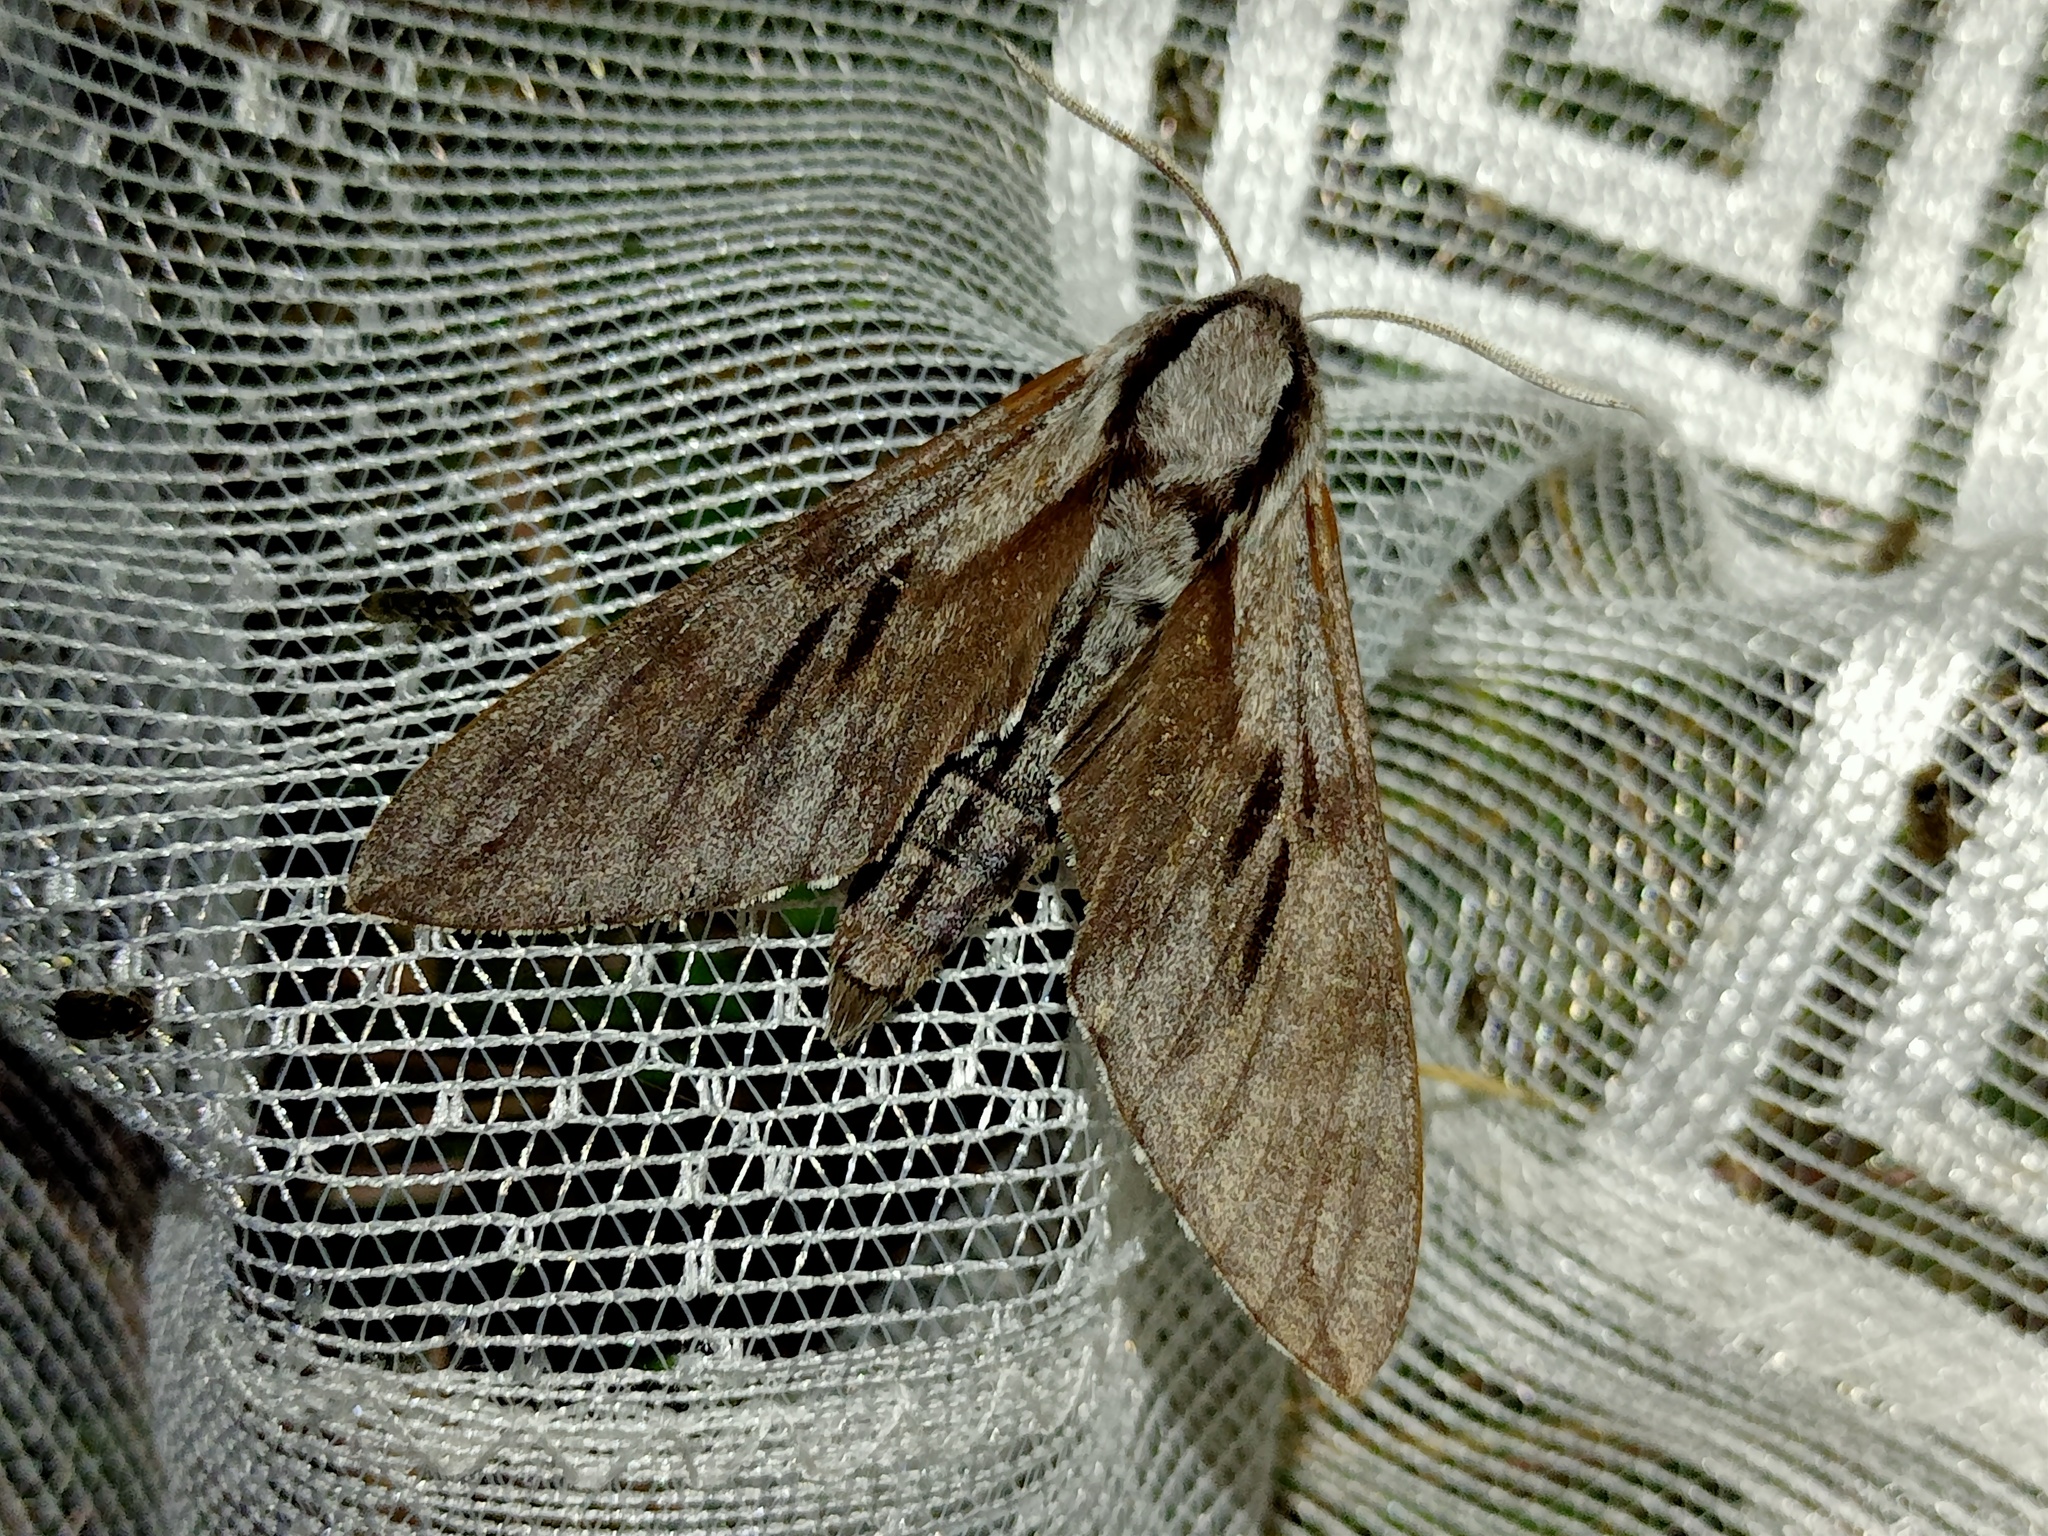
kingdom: Animalia
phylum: Arthropoda
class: Insecta
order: Lepidoptera
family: Sphingidae
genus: Sphinx
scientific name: Sphinx pinastri
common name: Pine hawk-moth
